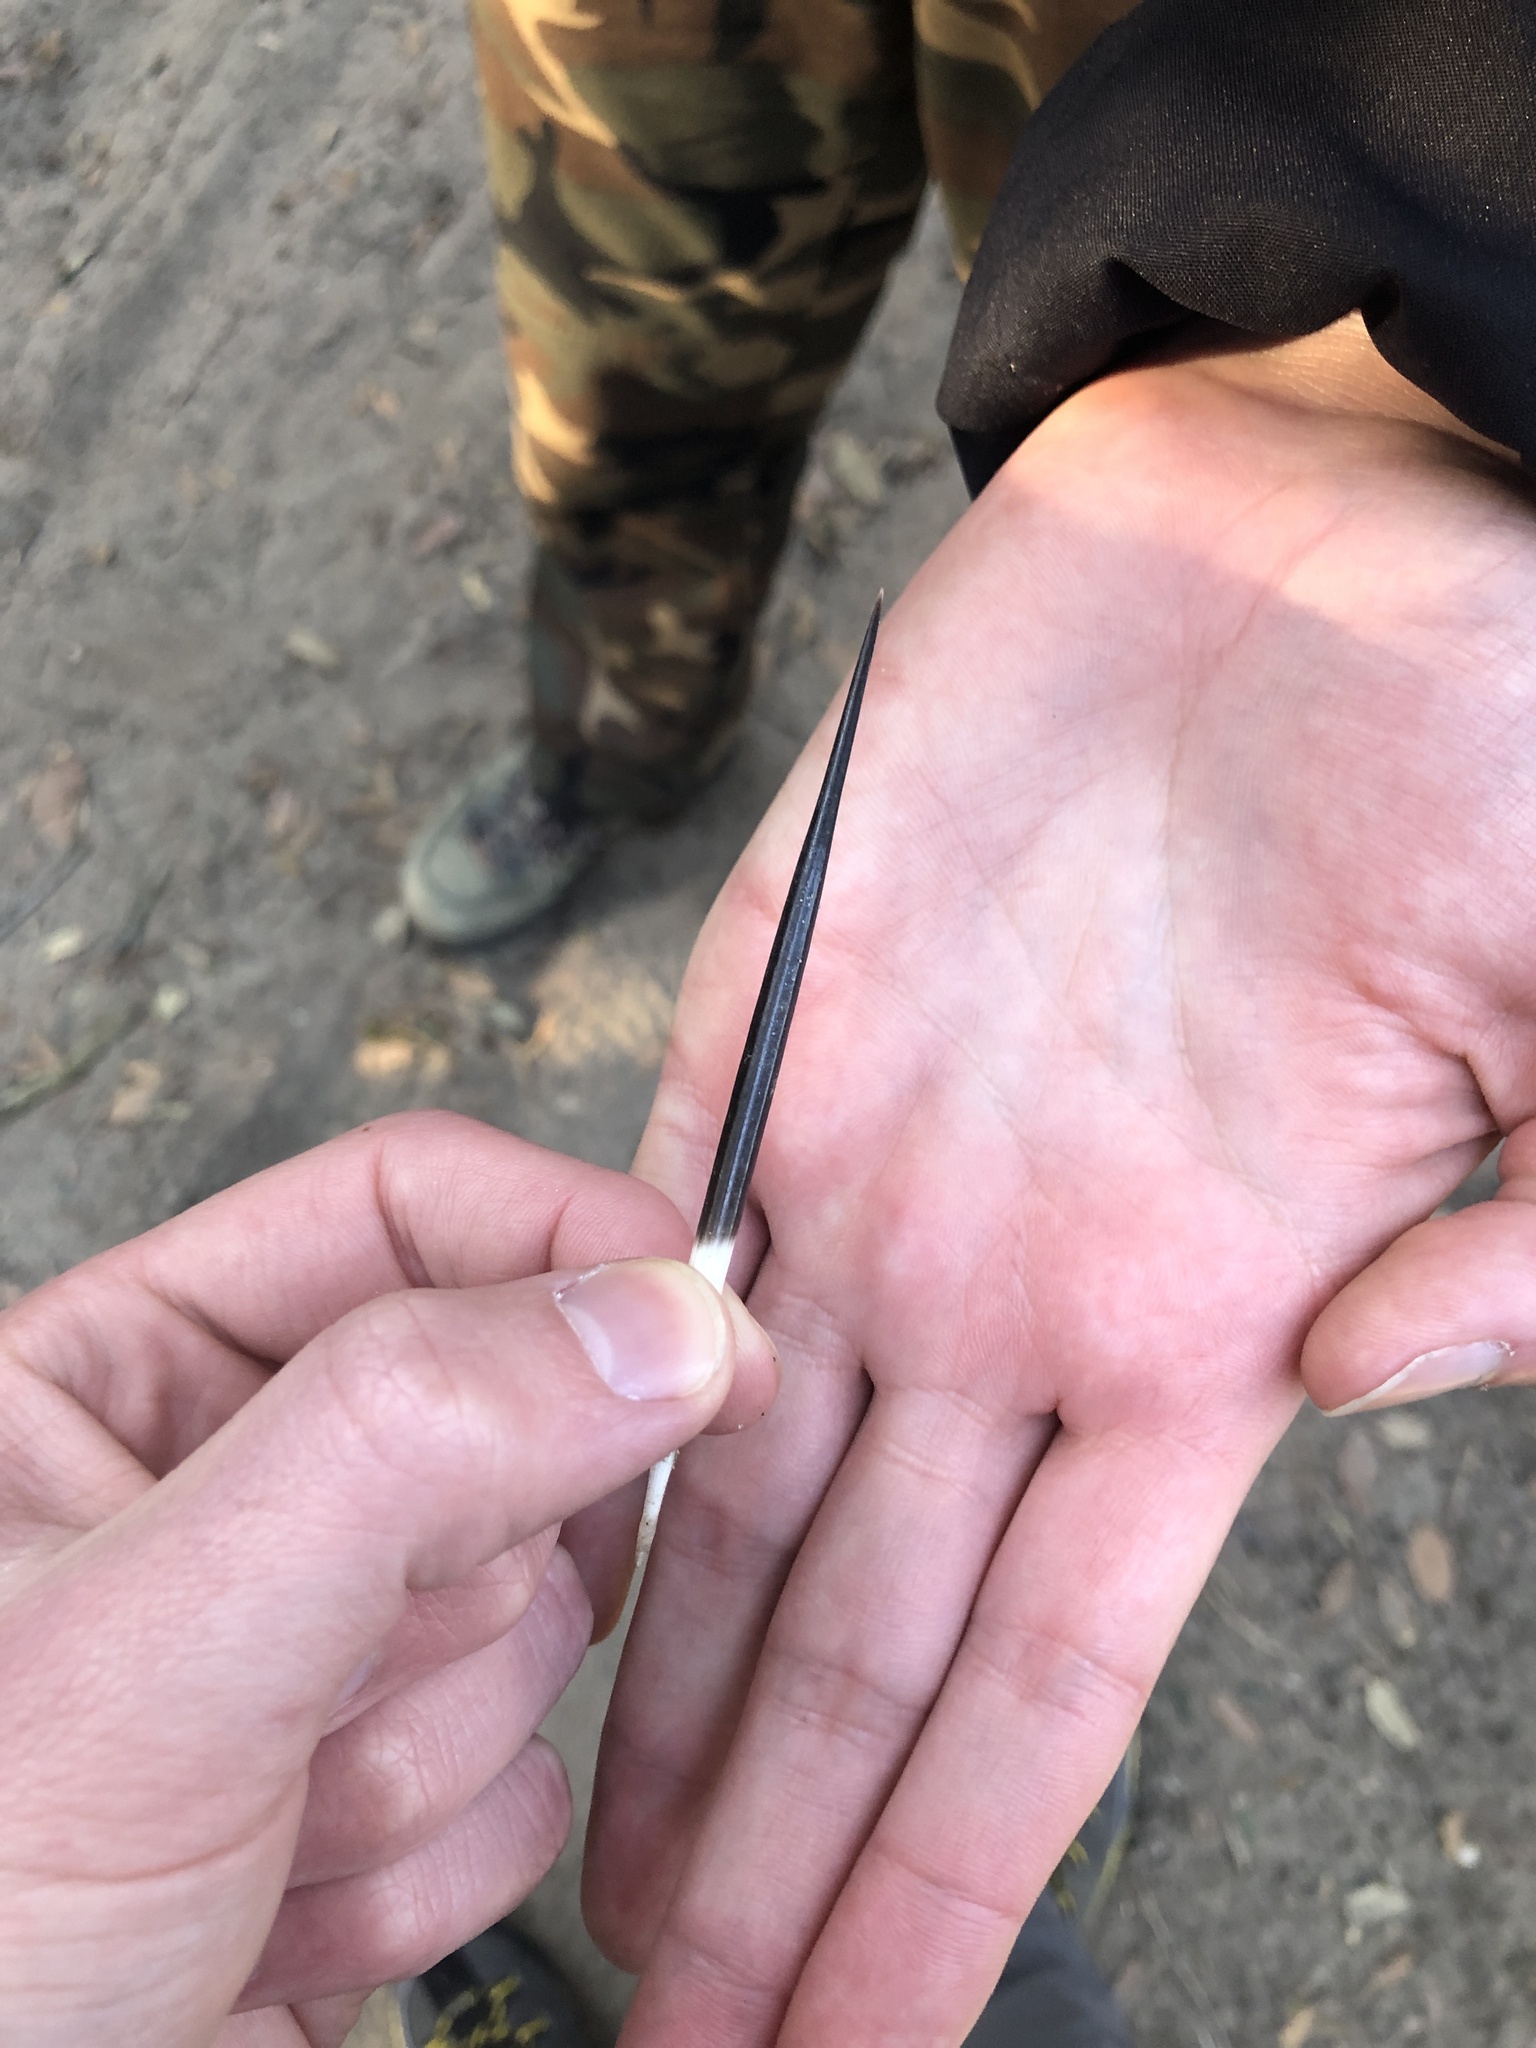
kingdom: Animalia
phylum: Chordata
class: Mammalia
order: Rodentia
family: Hystricidae
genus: Hystrix
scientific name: Hystrix cristata
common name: Crested porcupine
